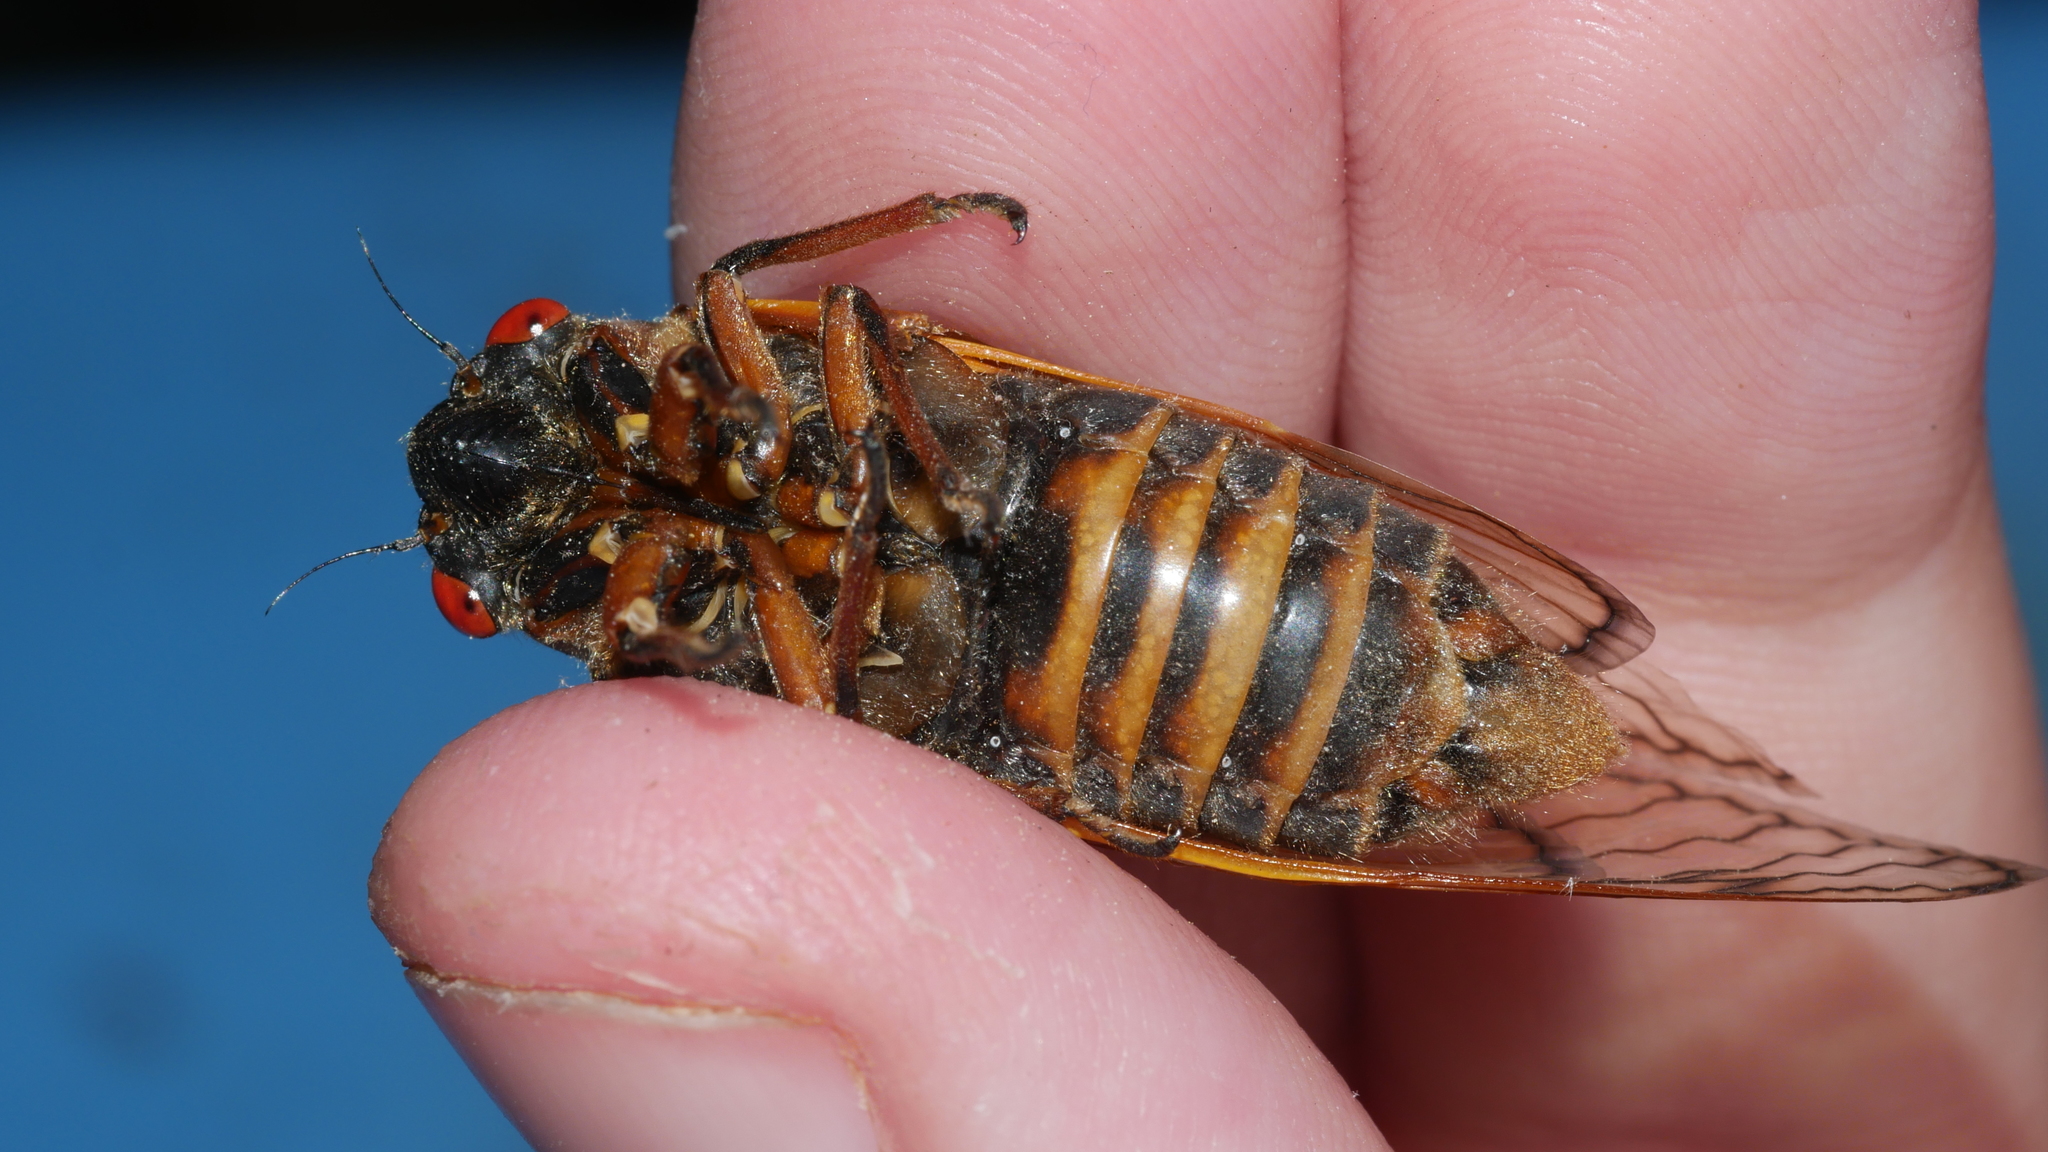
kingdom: Animalia
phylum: Arthropoda
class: Insecta
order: Hemiptera
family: Cicadidae
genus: Magicicada
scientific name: Magicicada septendecim
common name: Periodical cicada
